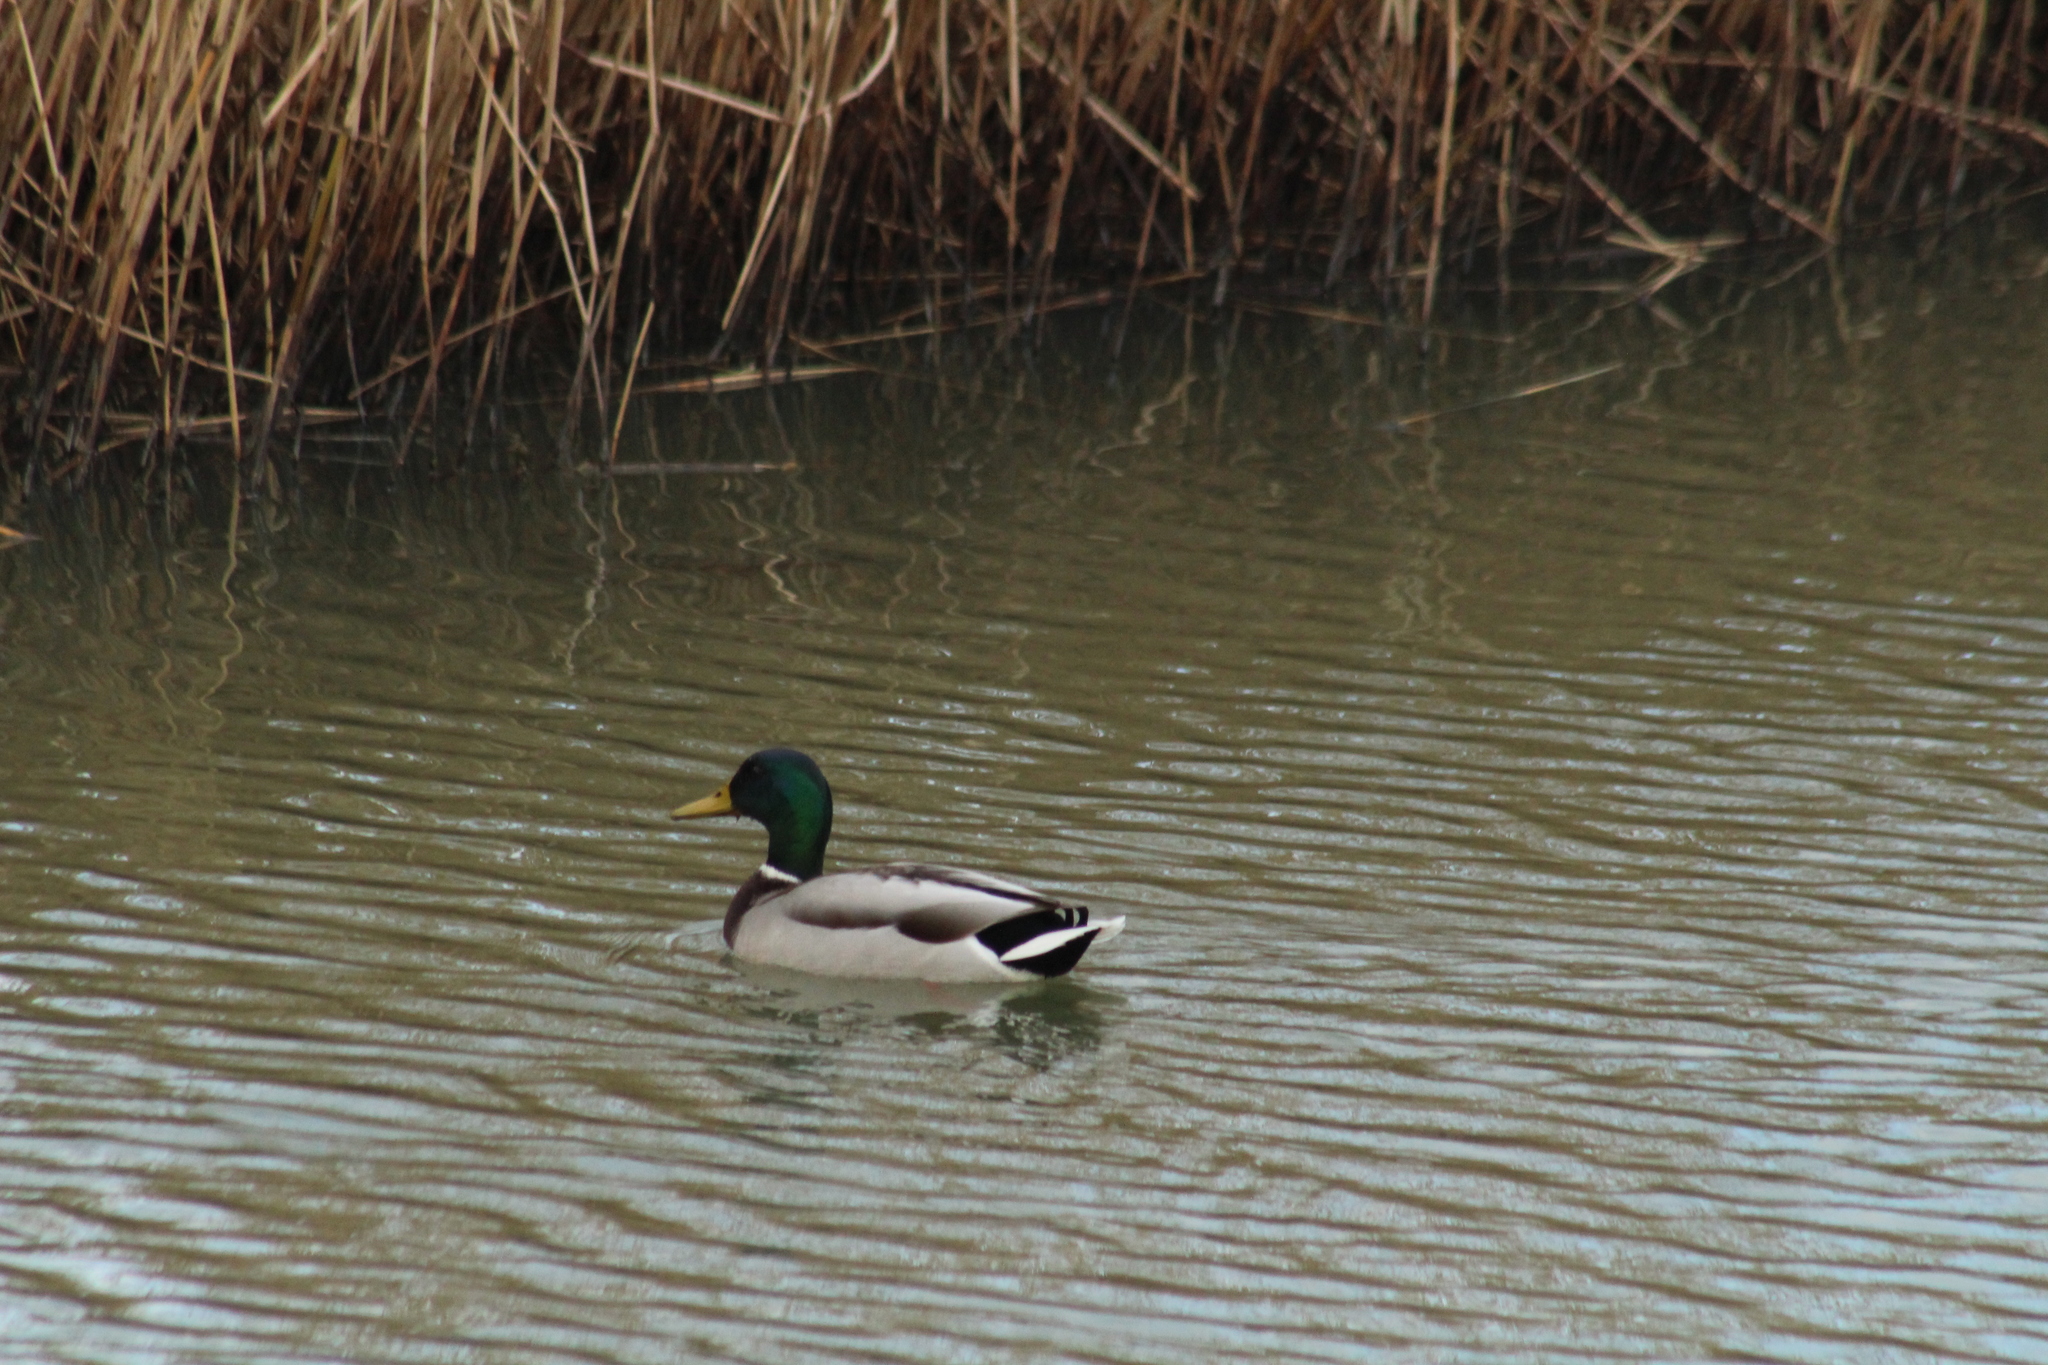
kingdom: Animalia
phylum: Chordata
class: Aves
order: Anseriformes
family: Anatidae
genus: Anas
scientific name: Anas platyrhynchos
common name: Mallard
